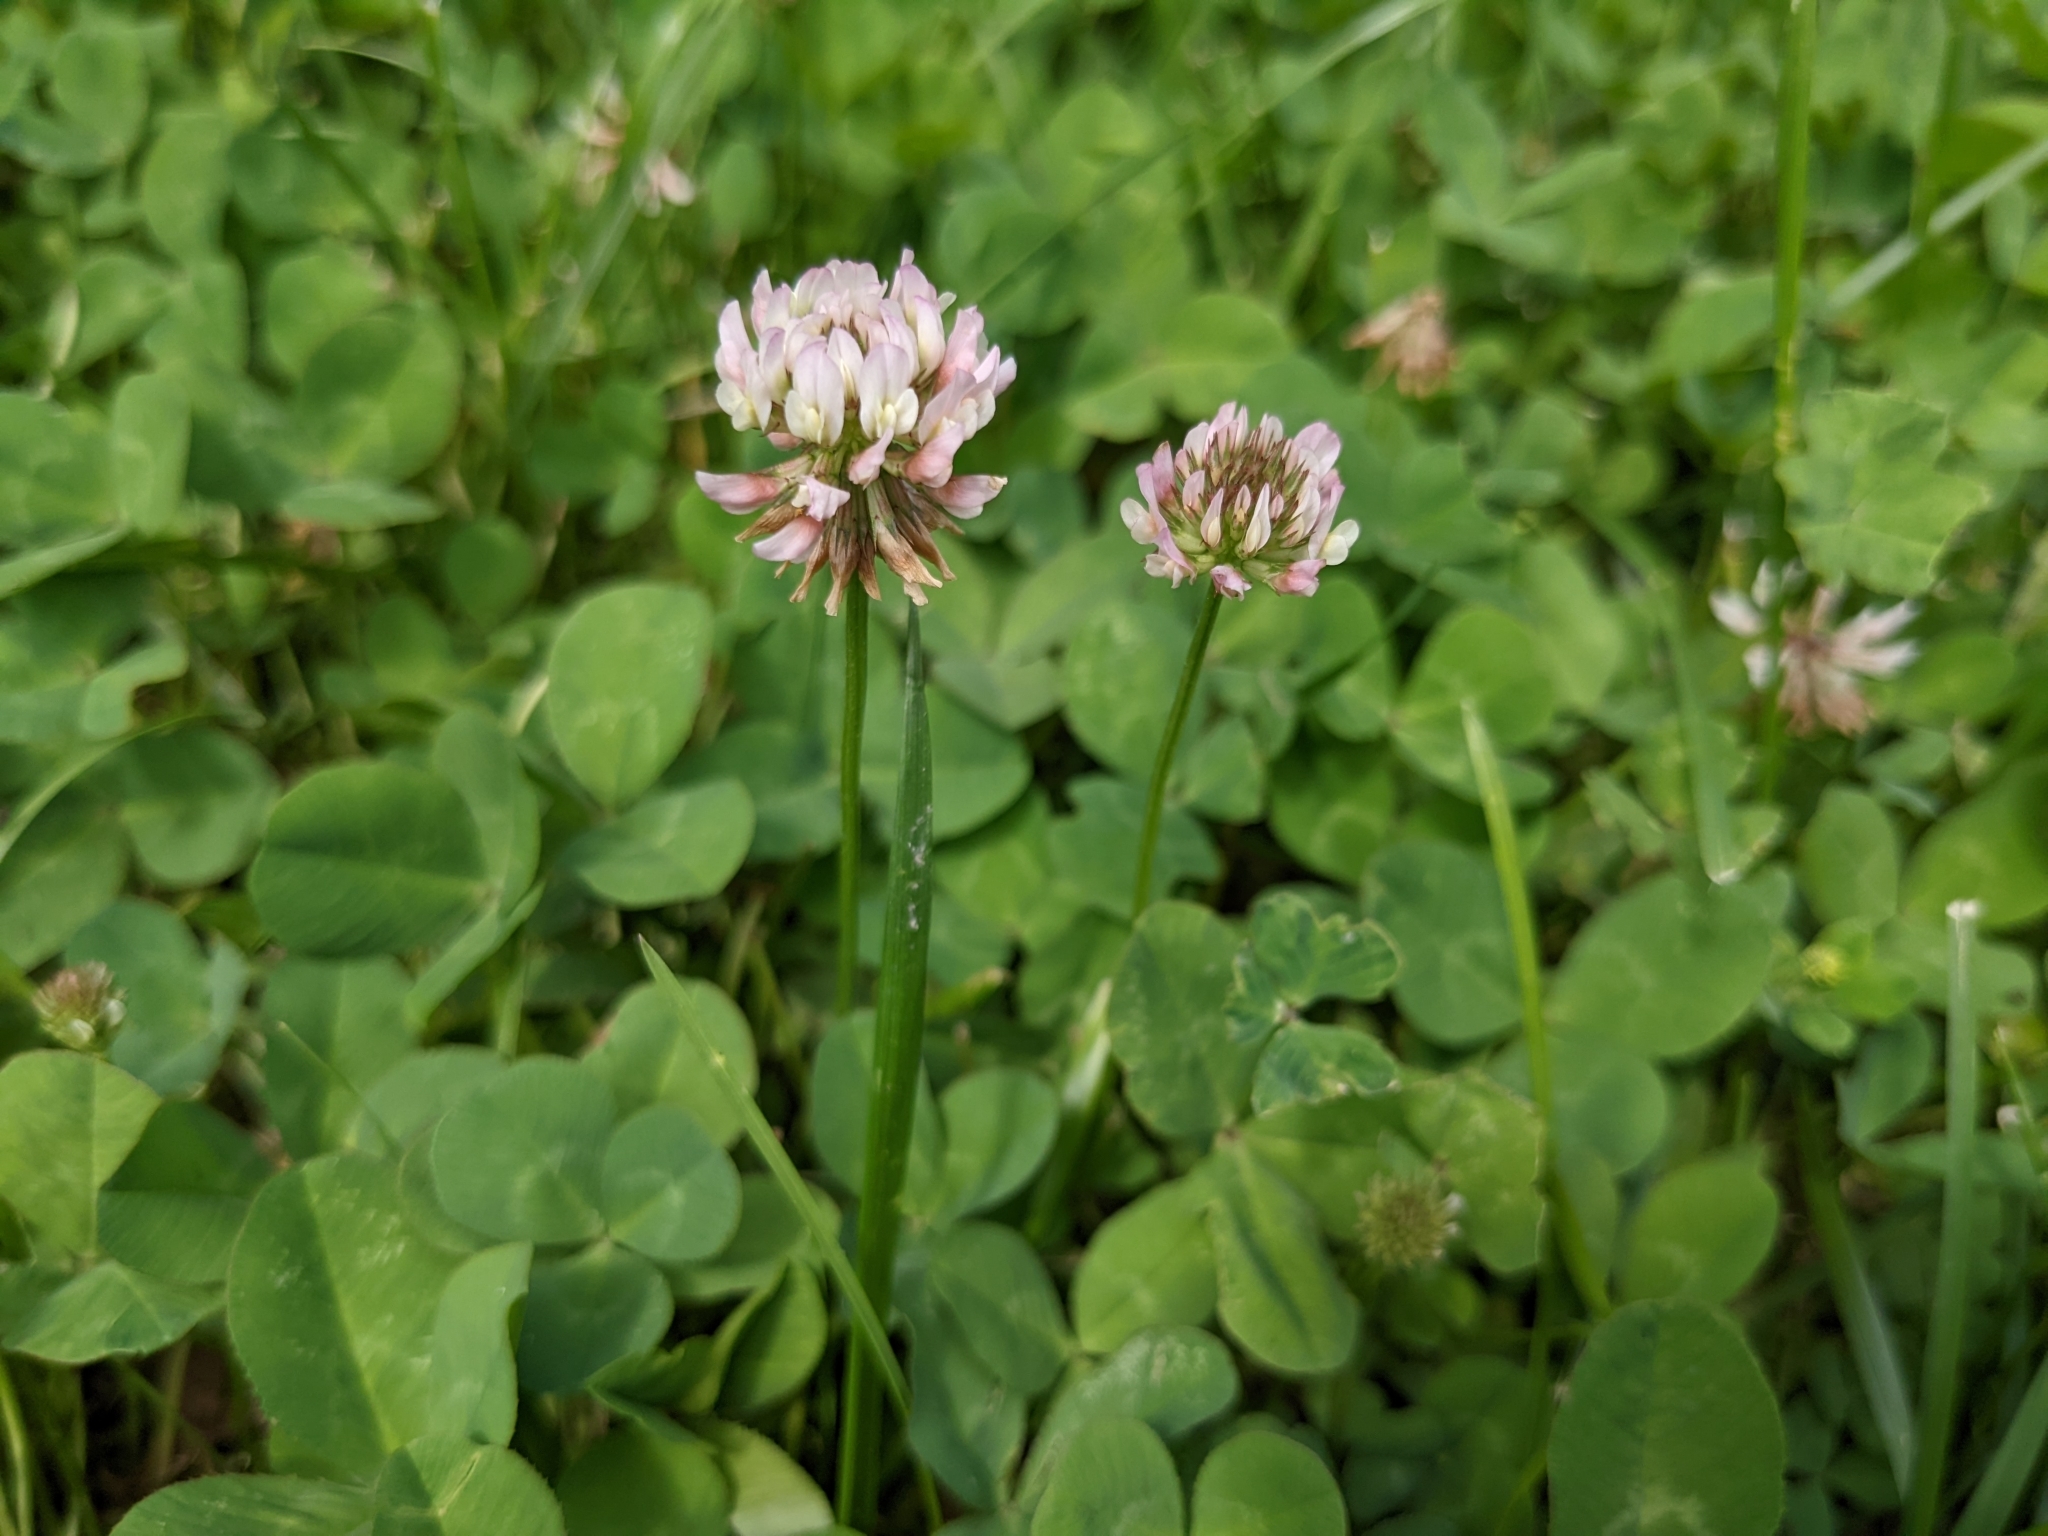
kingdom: Plantae
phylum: Tracheophyta
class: Magnoliopsida
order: Fabales
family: Fabaceae
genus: Trifolium
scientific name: Trifolium repens
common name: White clover
